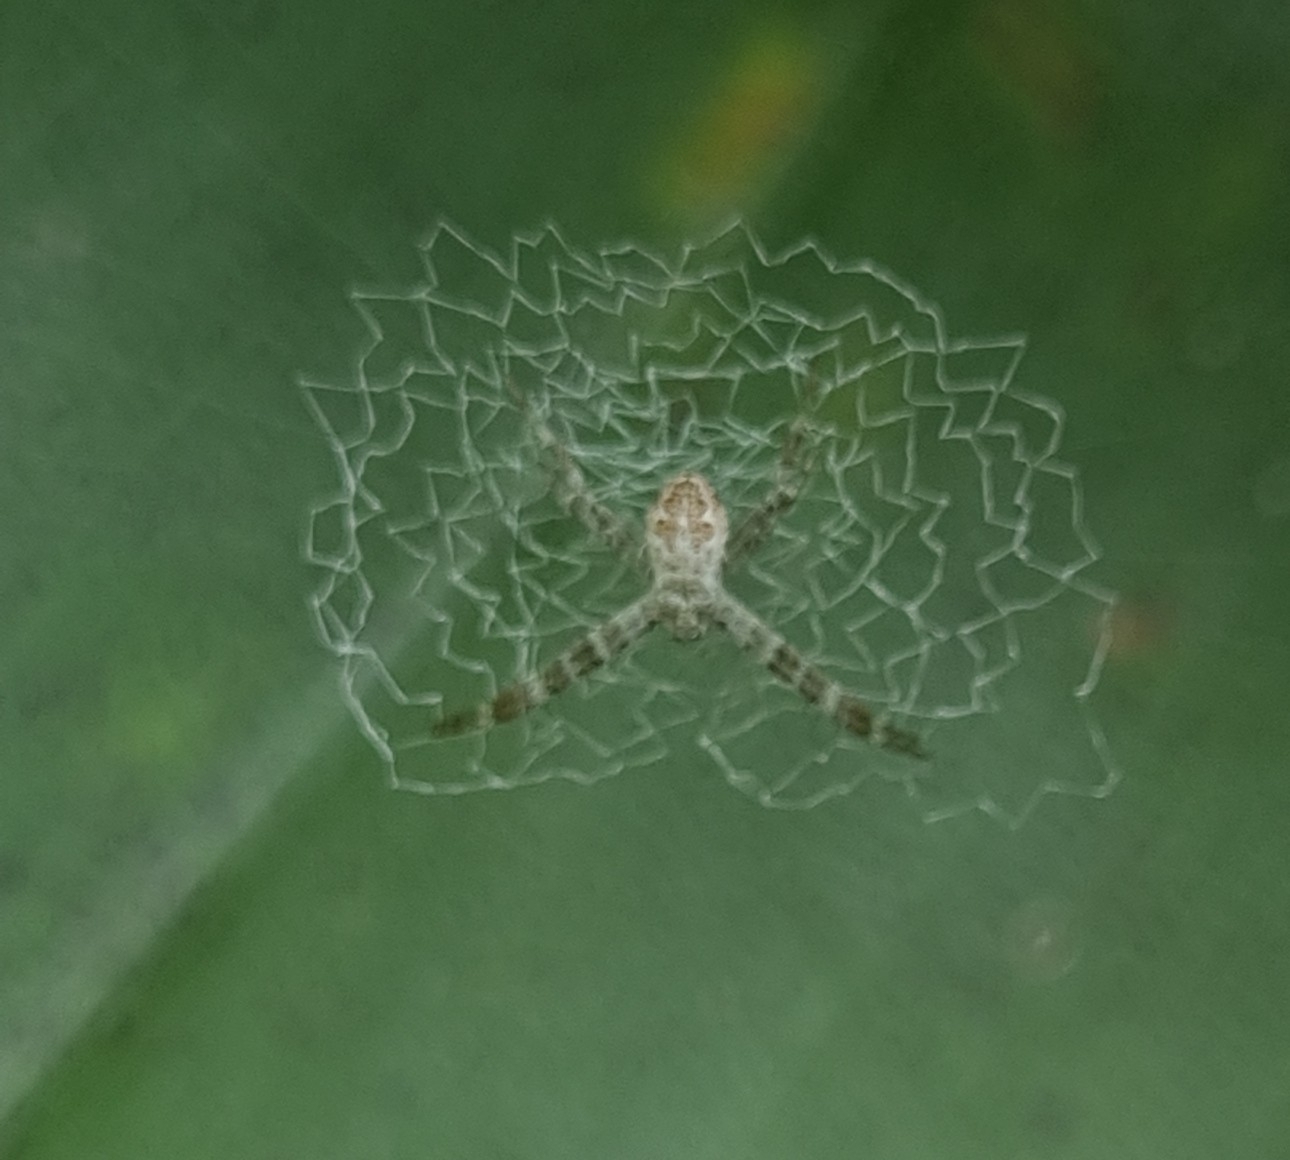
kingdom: Animalia
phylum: Arthropoda
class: Arachnida
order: Araneae
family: Araneidae
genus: Argiope
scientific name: Argiope
